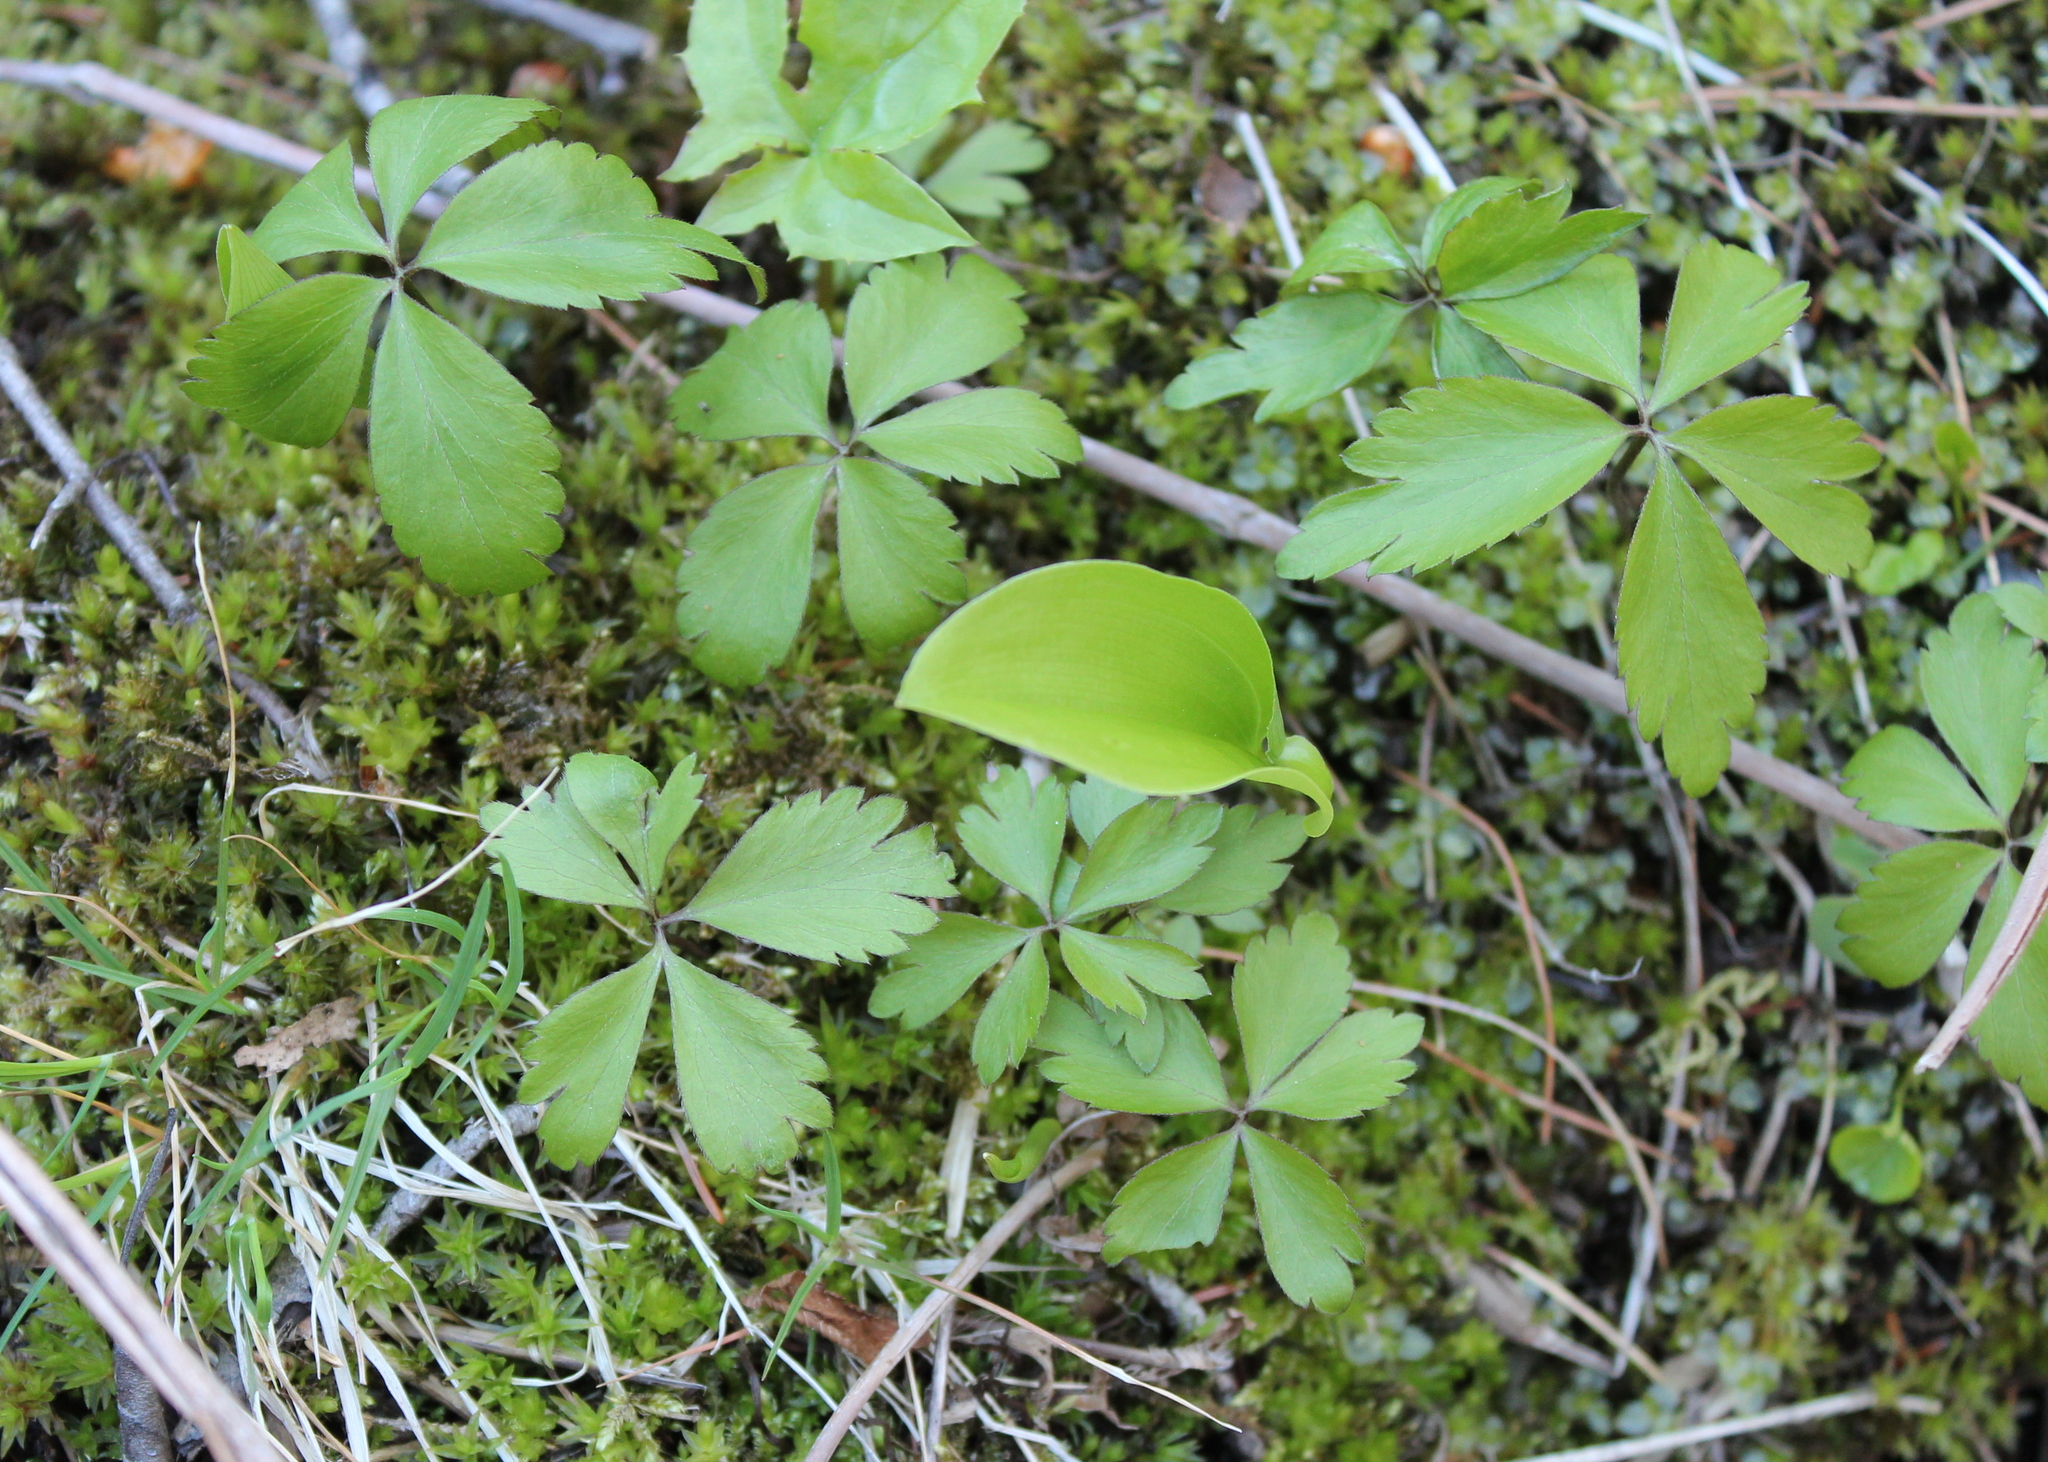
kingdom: Plantae
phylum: Tracheophyta
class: Magnoliopsida
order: Ranunculales
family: Ranunculaceae
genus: Anemone
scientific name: Anemone quinquefolia
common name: Wood anemone
